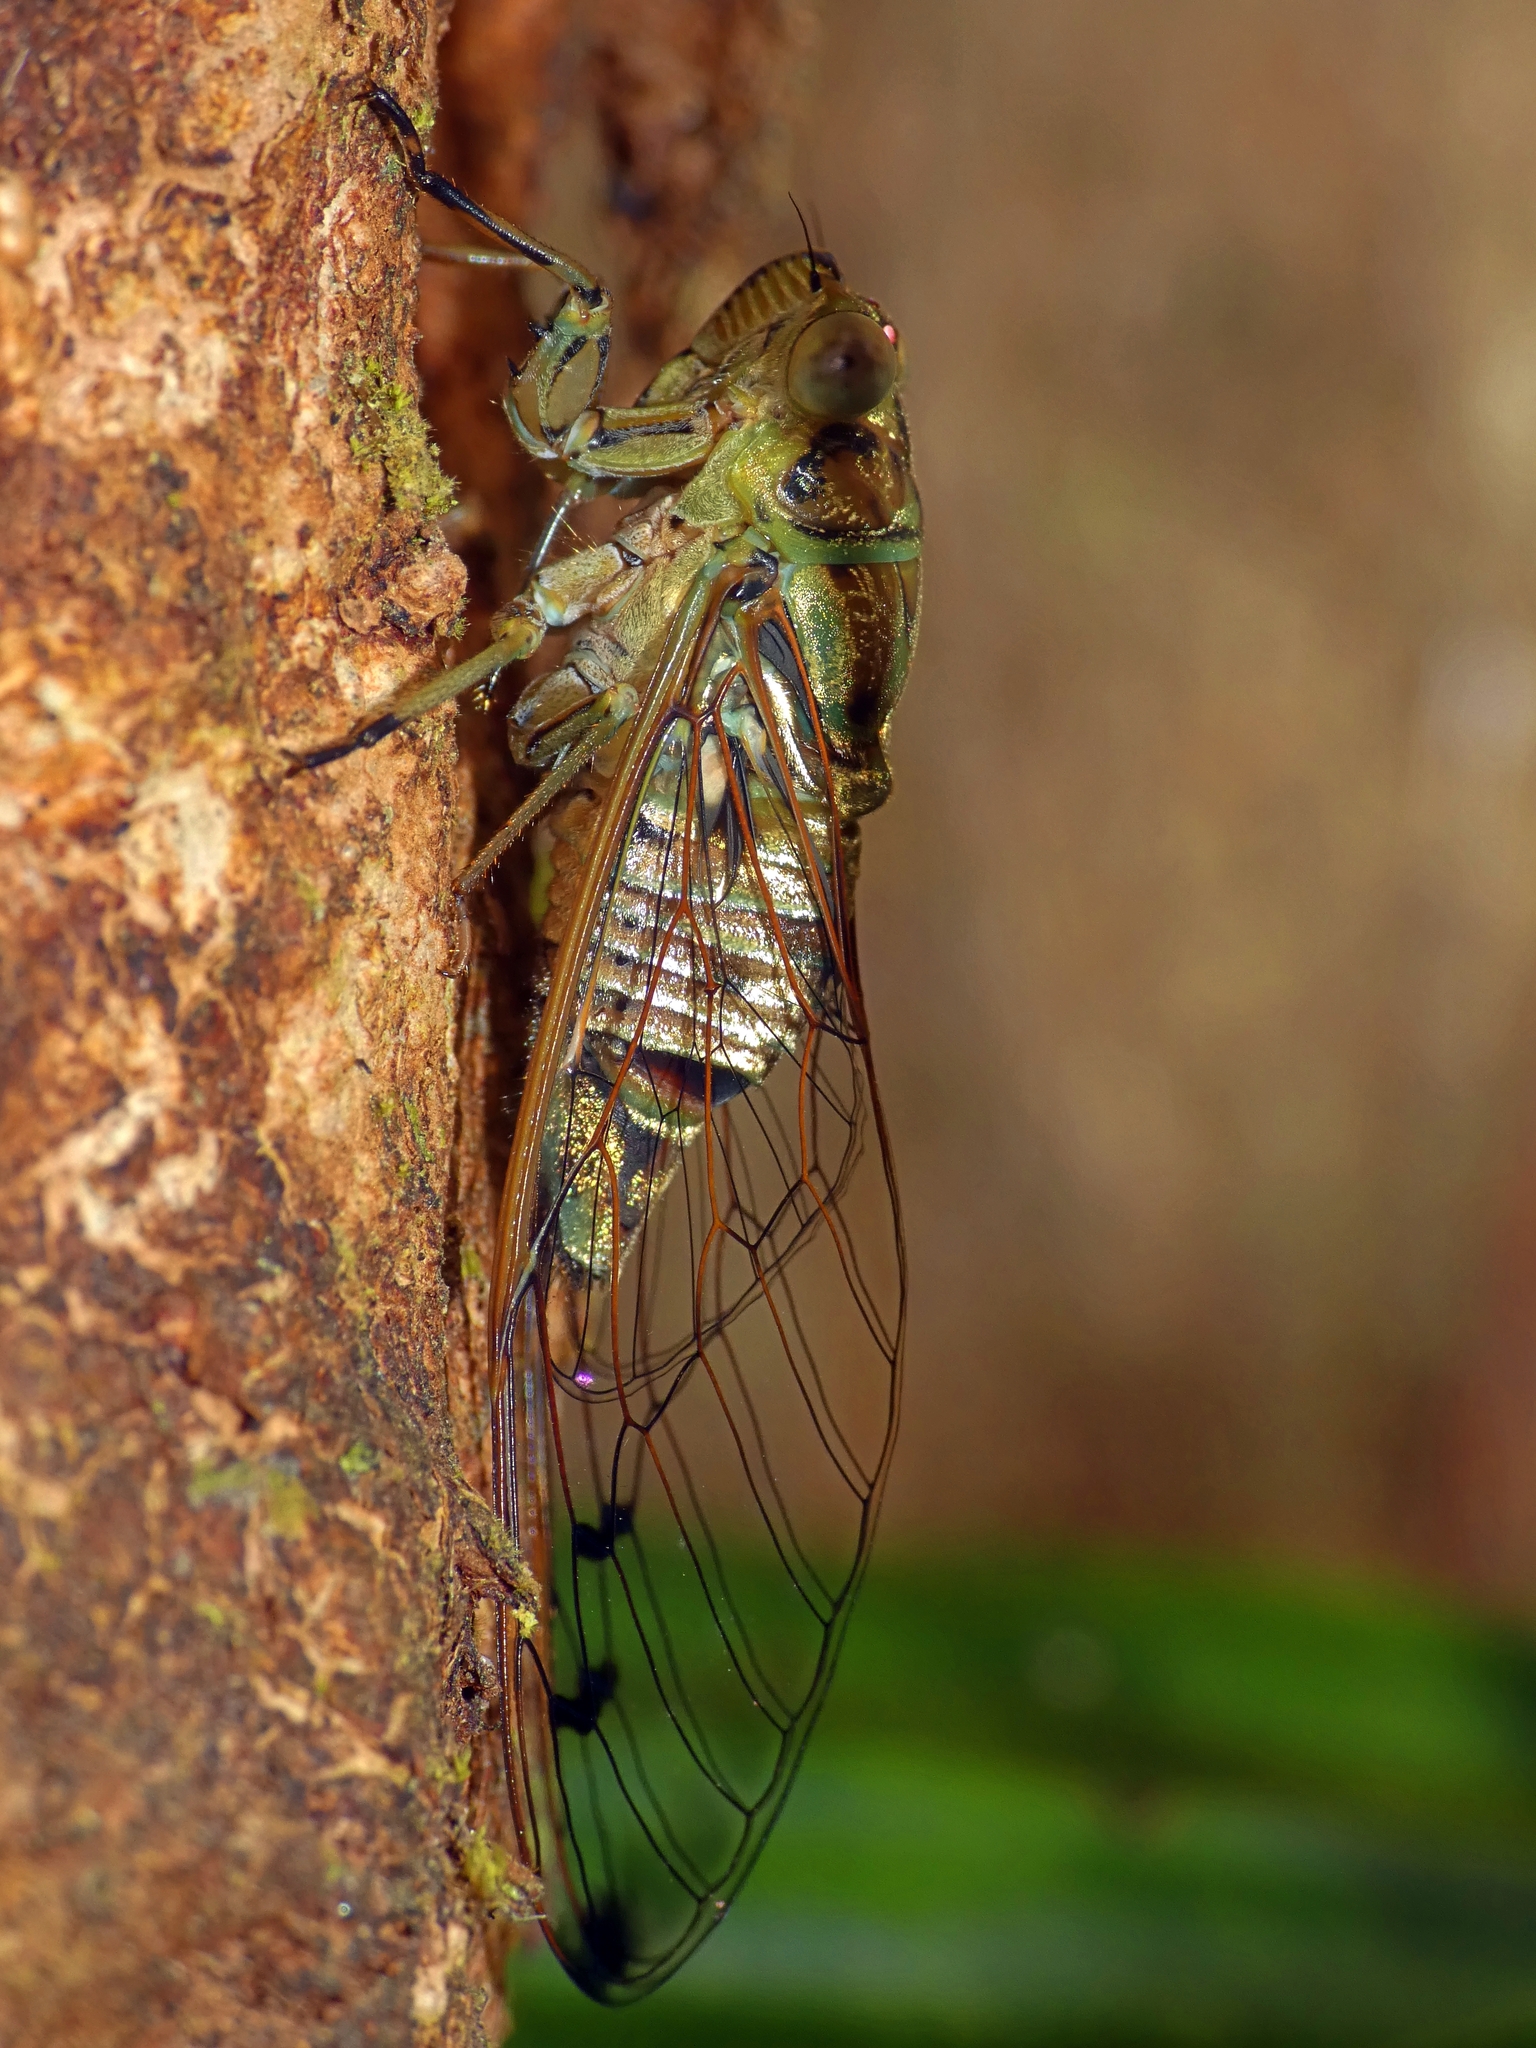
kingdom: Animalia
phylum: Arthropoda
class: Insecta
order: Hemiptera
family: Cicadidae
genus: Tamasa
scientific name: Tamasa tristigma
